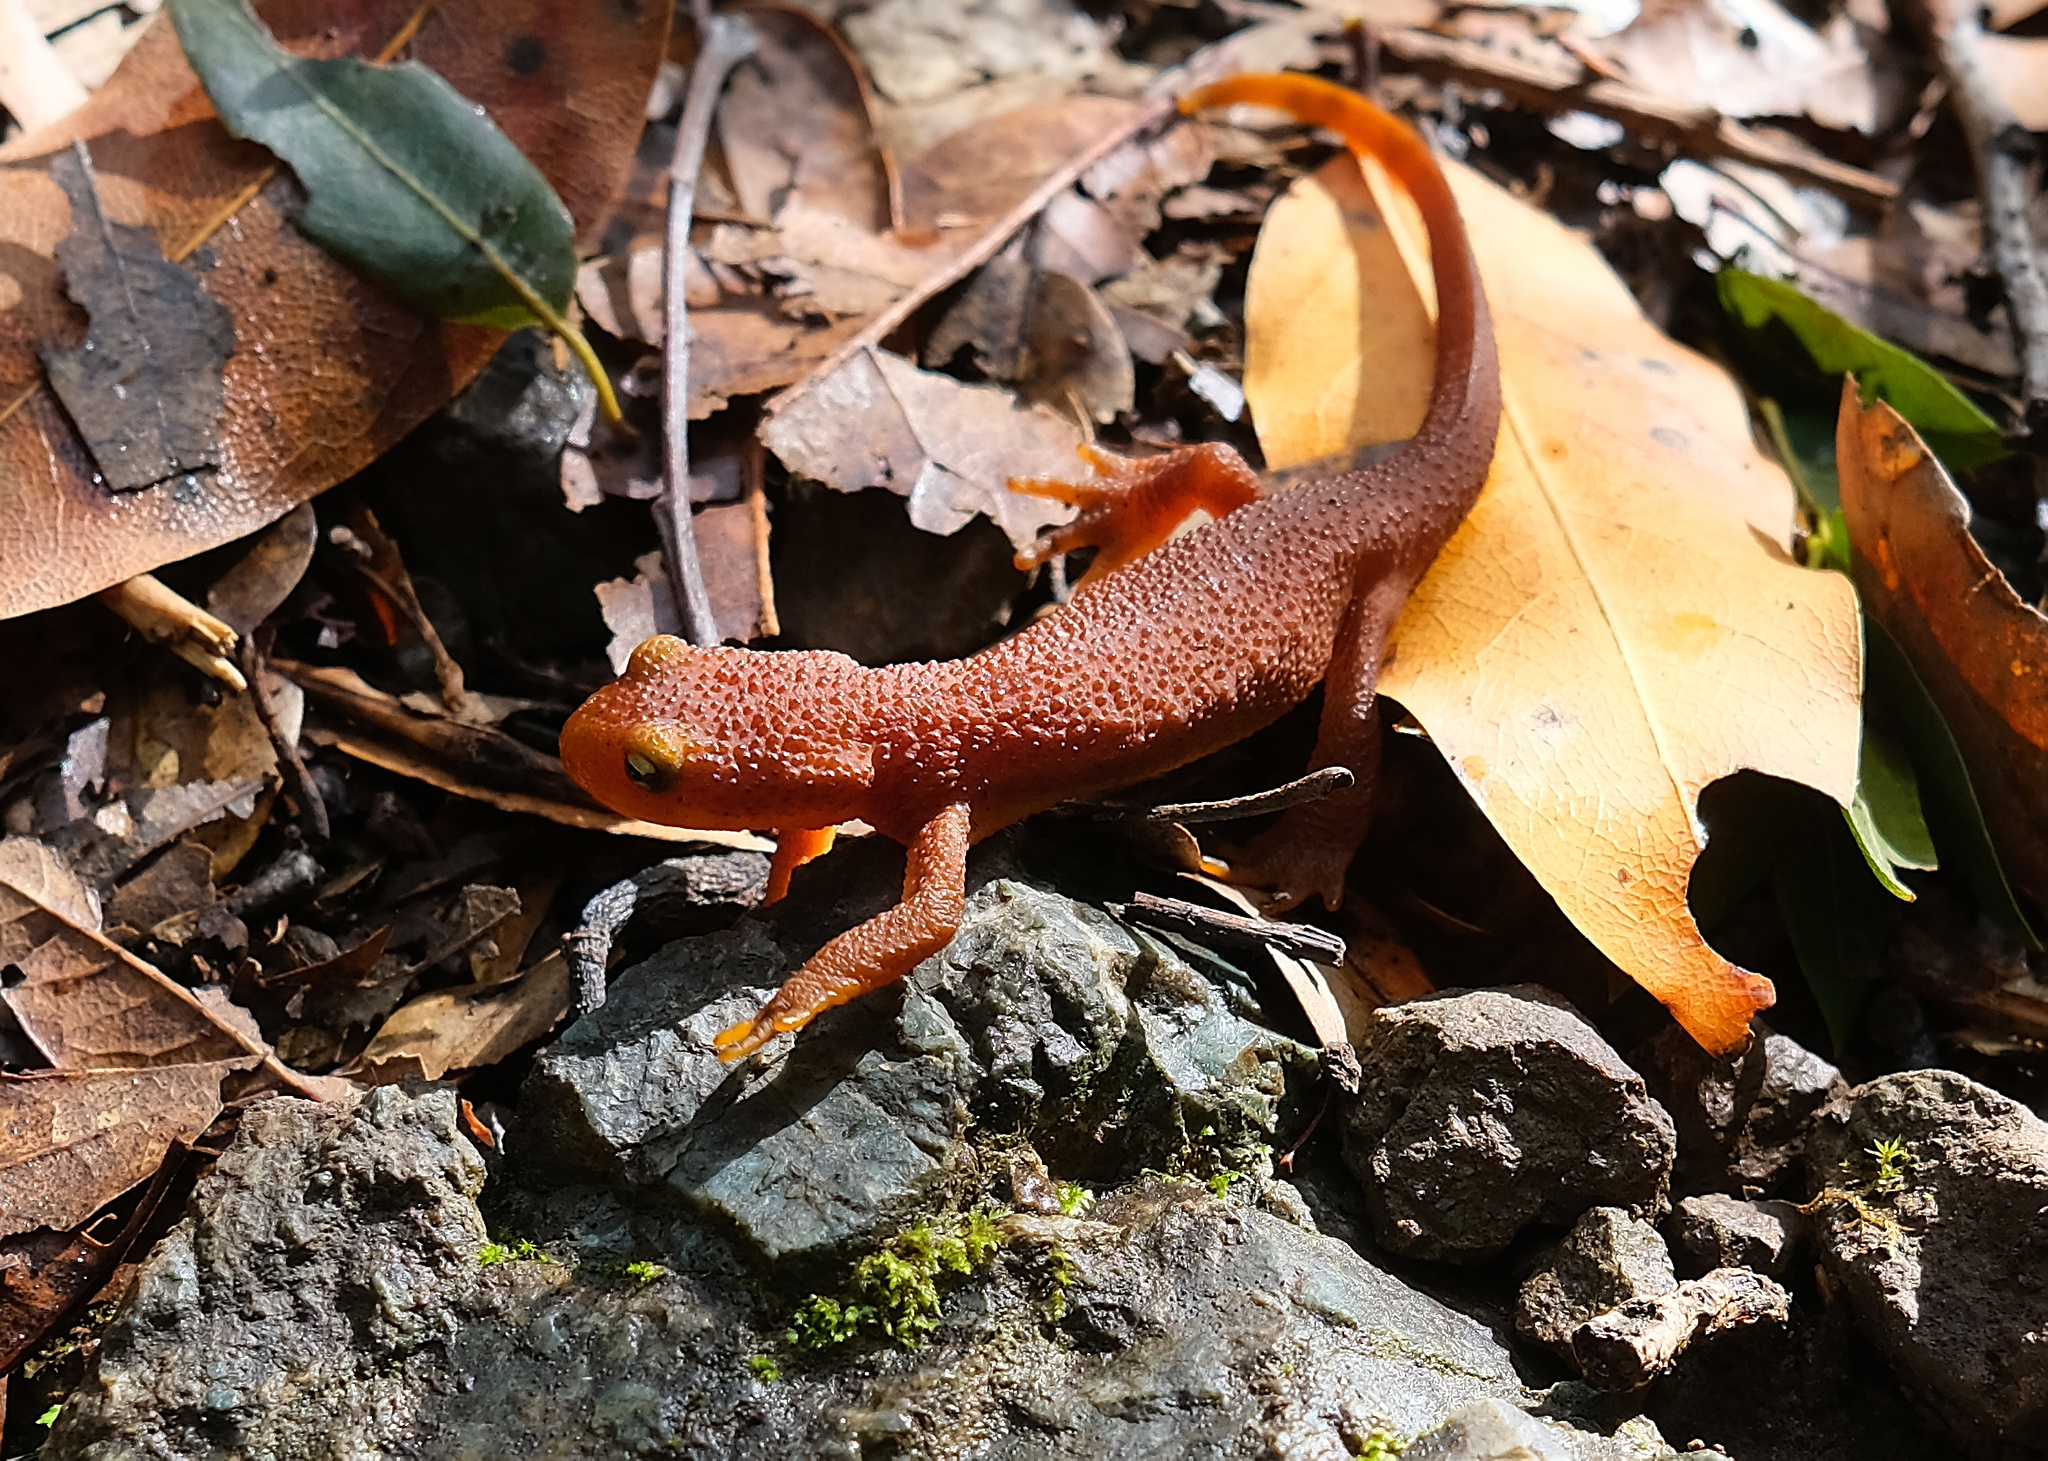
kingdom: Animalia
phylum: Chordata
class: Amphibia
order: Caudata
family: Salamandridae
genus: Taricha
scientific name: Taricha torosa
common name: California newt
